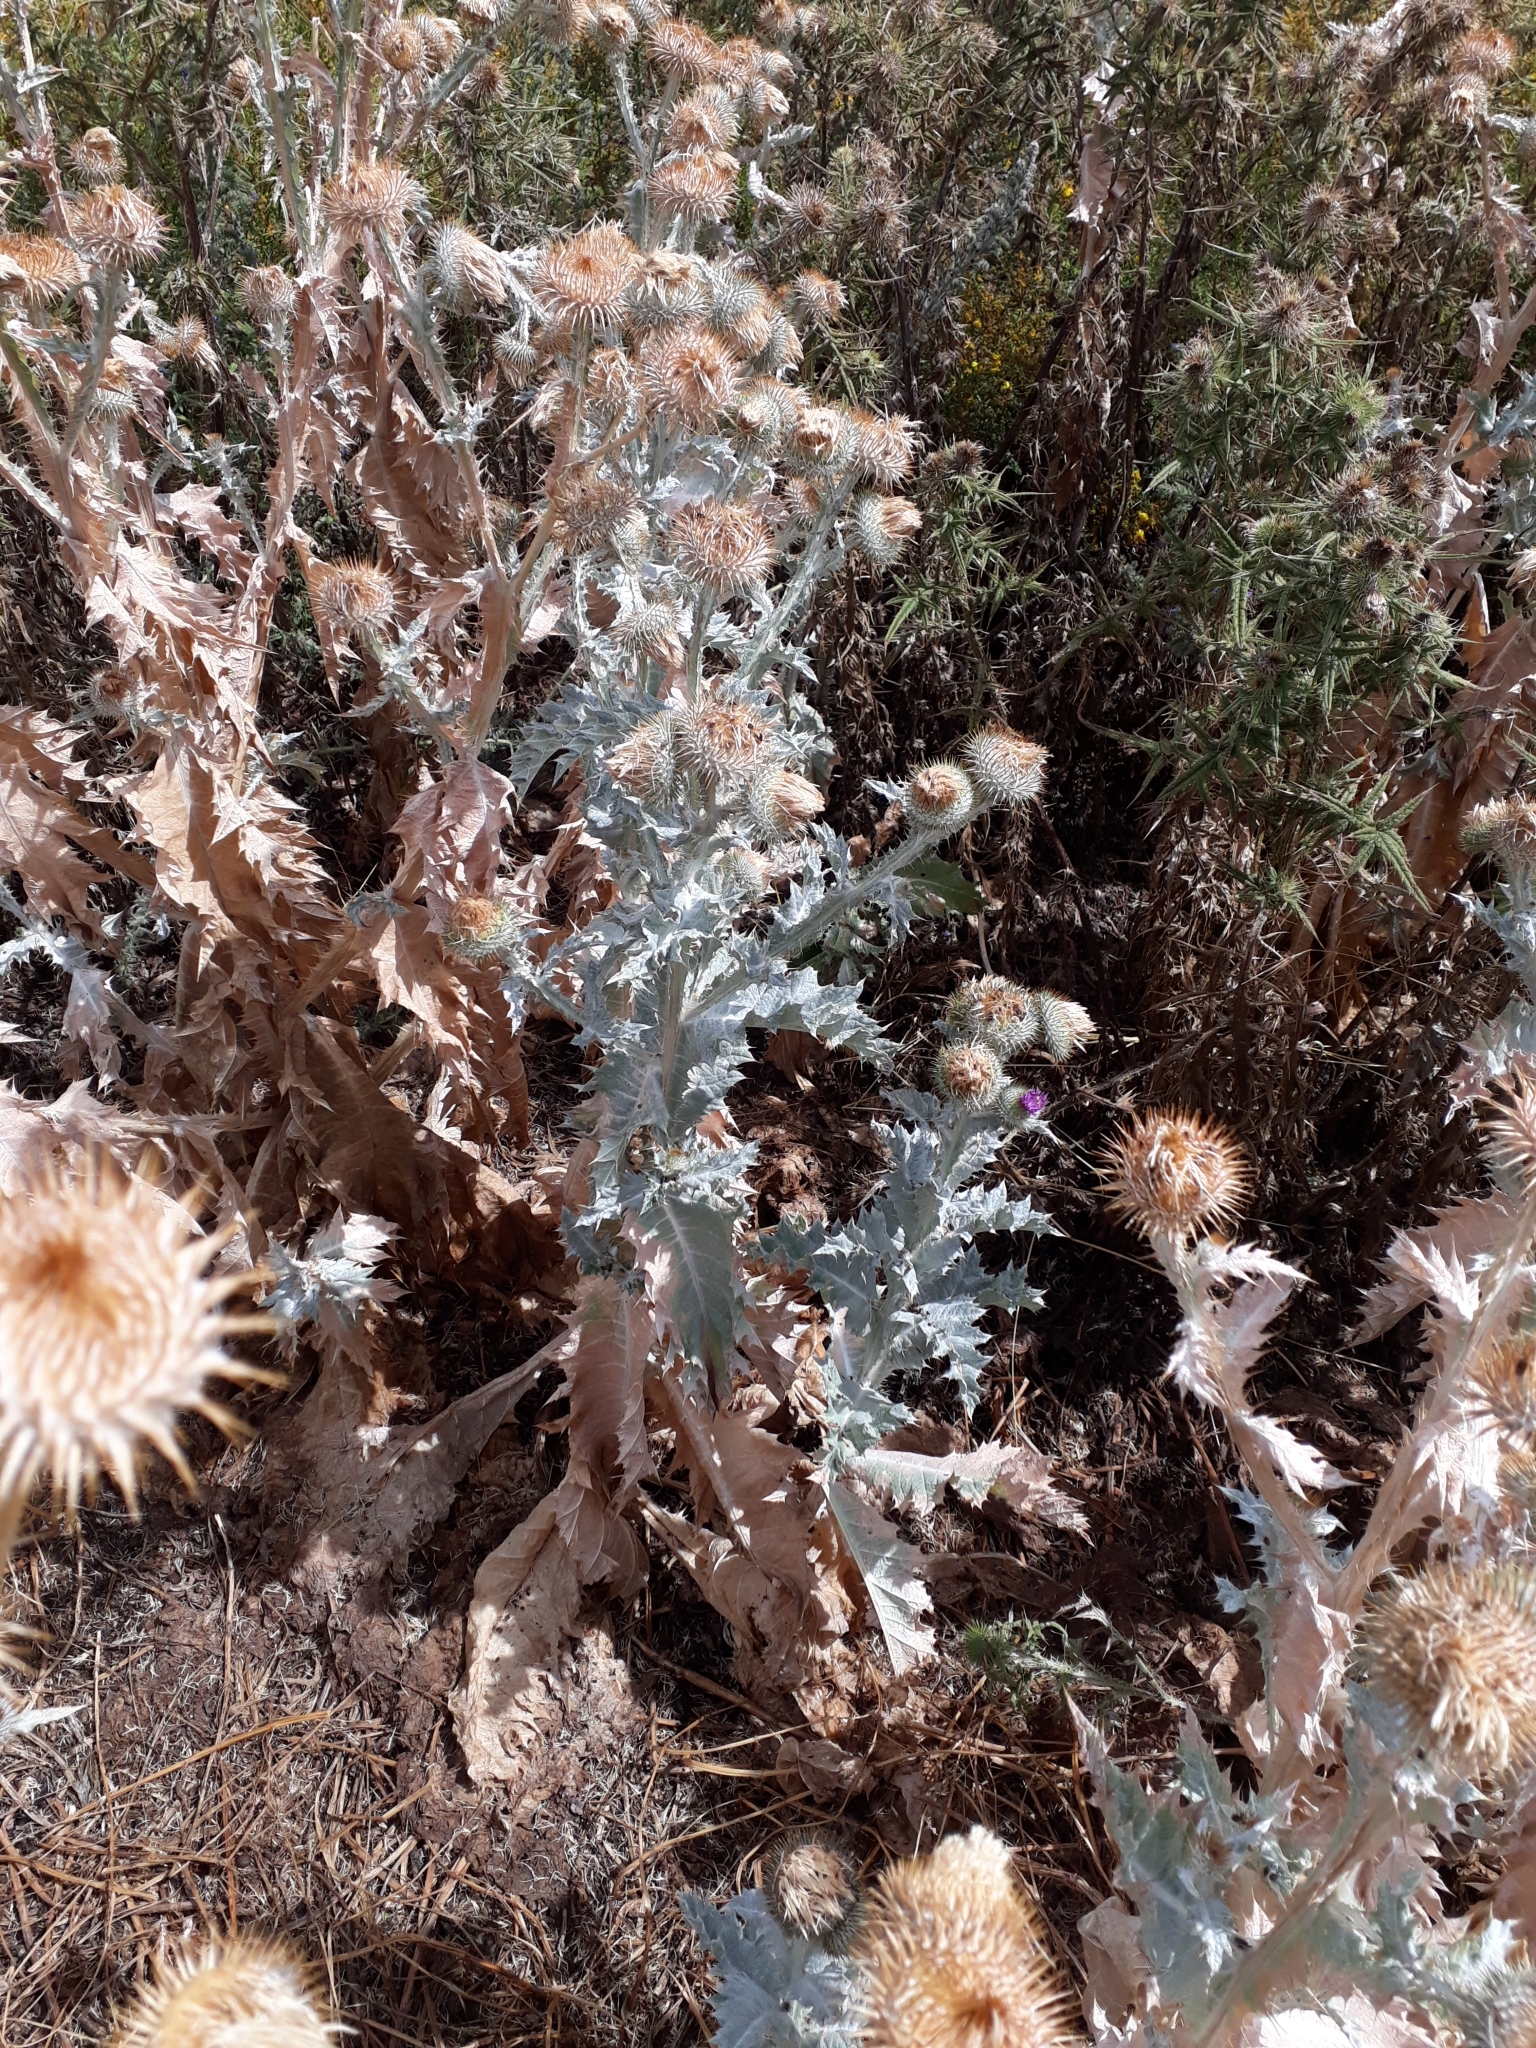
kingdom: Plantae
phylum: Tracheophyta
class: Magnoliopsida
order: Asterales
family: Asteraceae
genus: Onopordum
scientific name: Onopordum acanthium
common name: Scotch thistle
